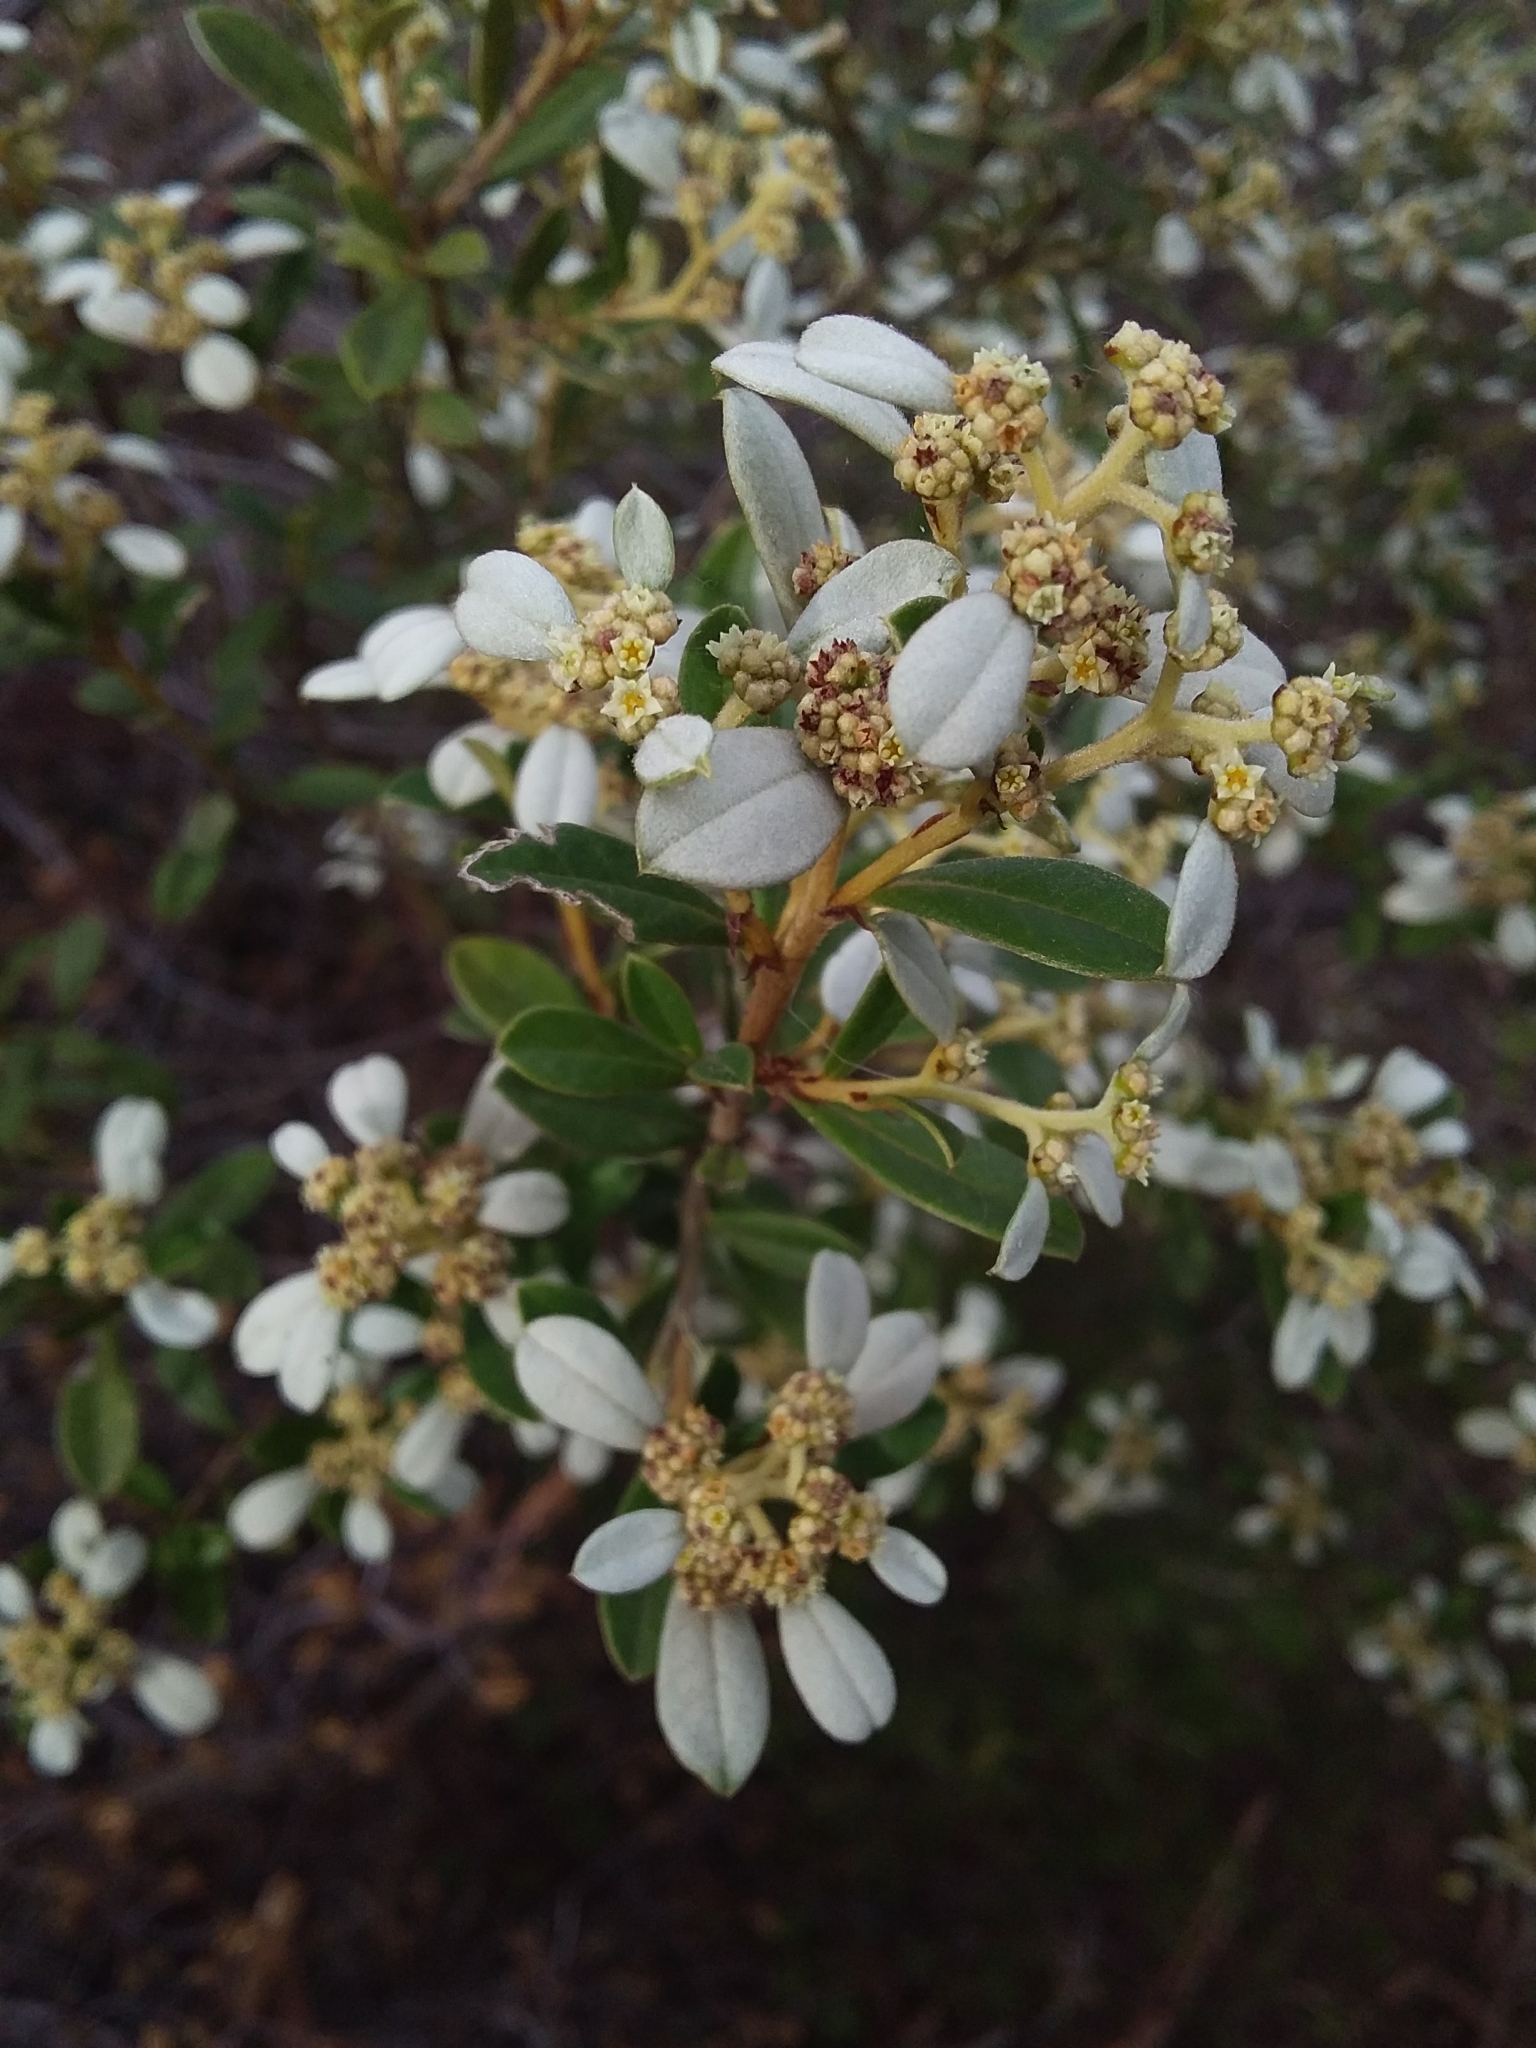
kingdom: Plantae
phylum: Tracheophyta
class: Magnoliopsida
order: Rosales
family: Rhamnaceae
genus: Spyridium
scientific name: Spyridium daphnoides
